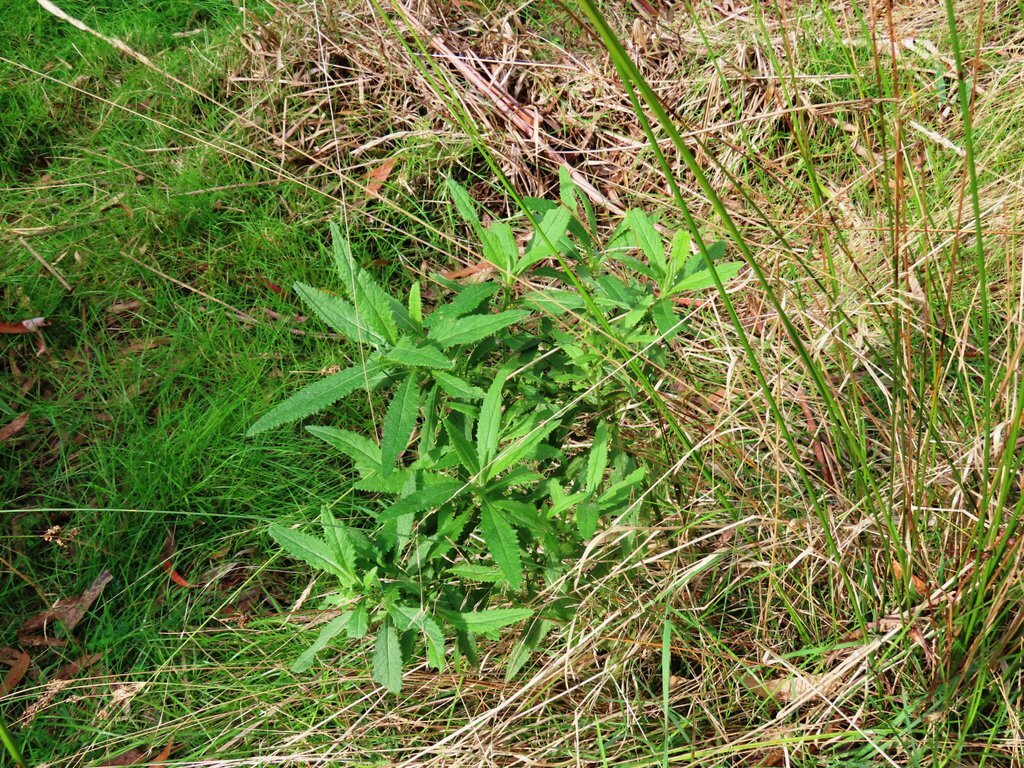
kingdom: Plantae
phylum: Tracheophyta
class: Magnoliopsida
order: Asterales
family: Asteraceae
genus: Senecio
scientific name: Senecio minimus
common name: Toothed fireweed
